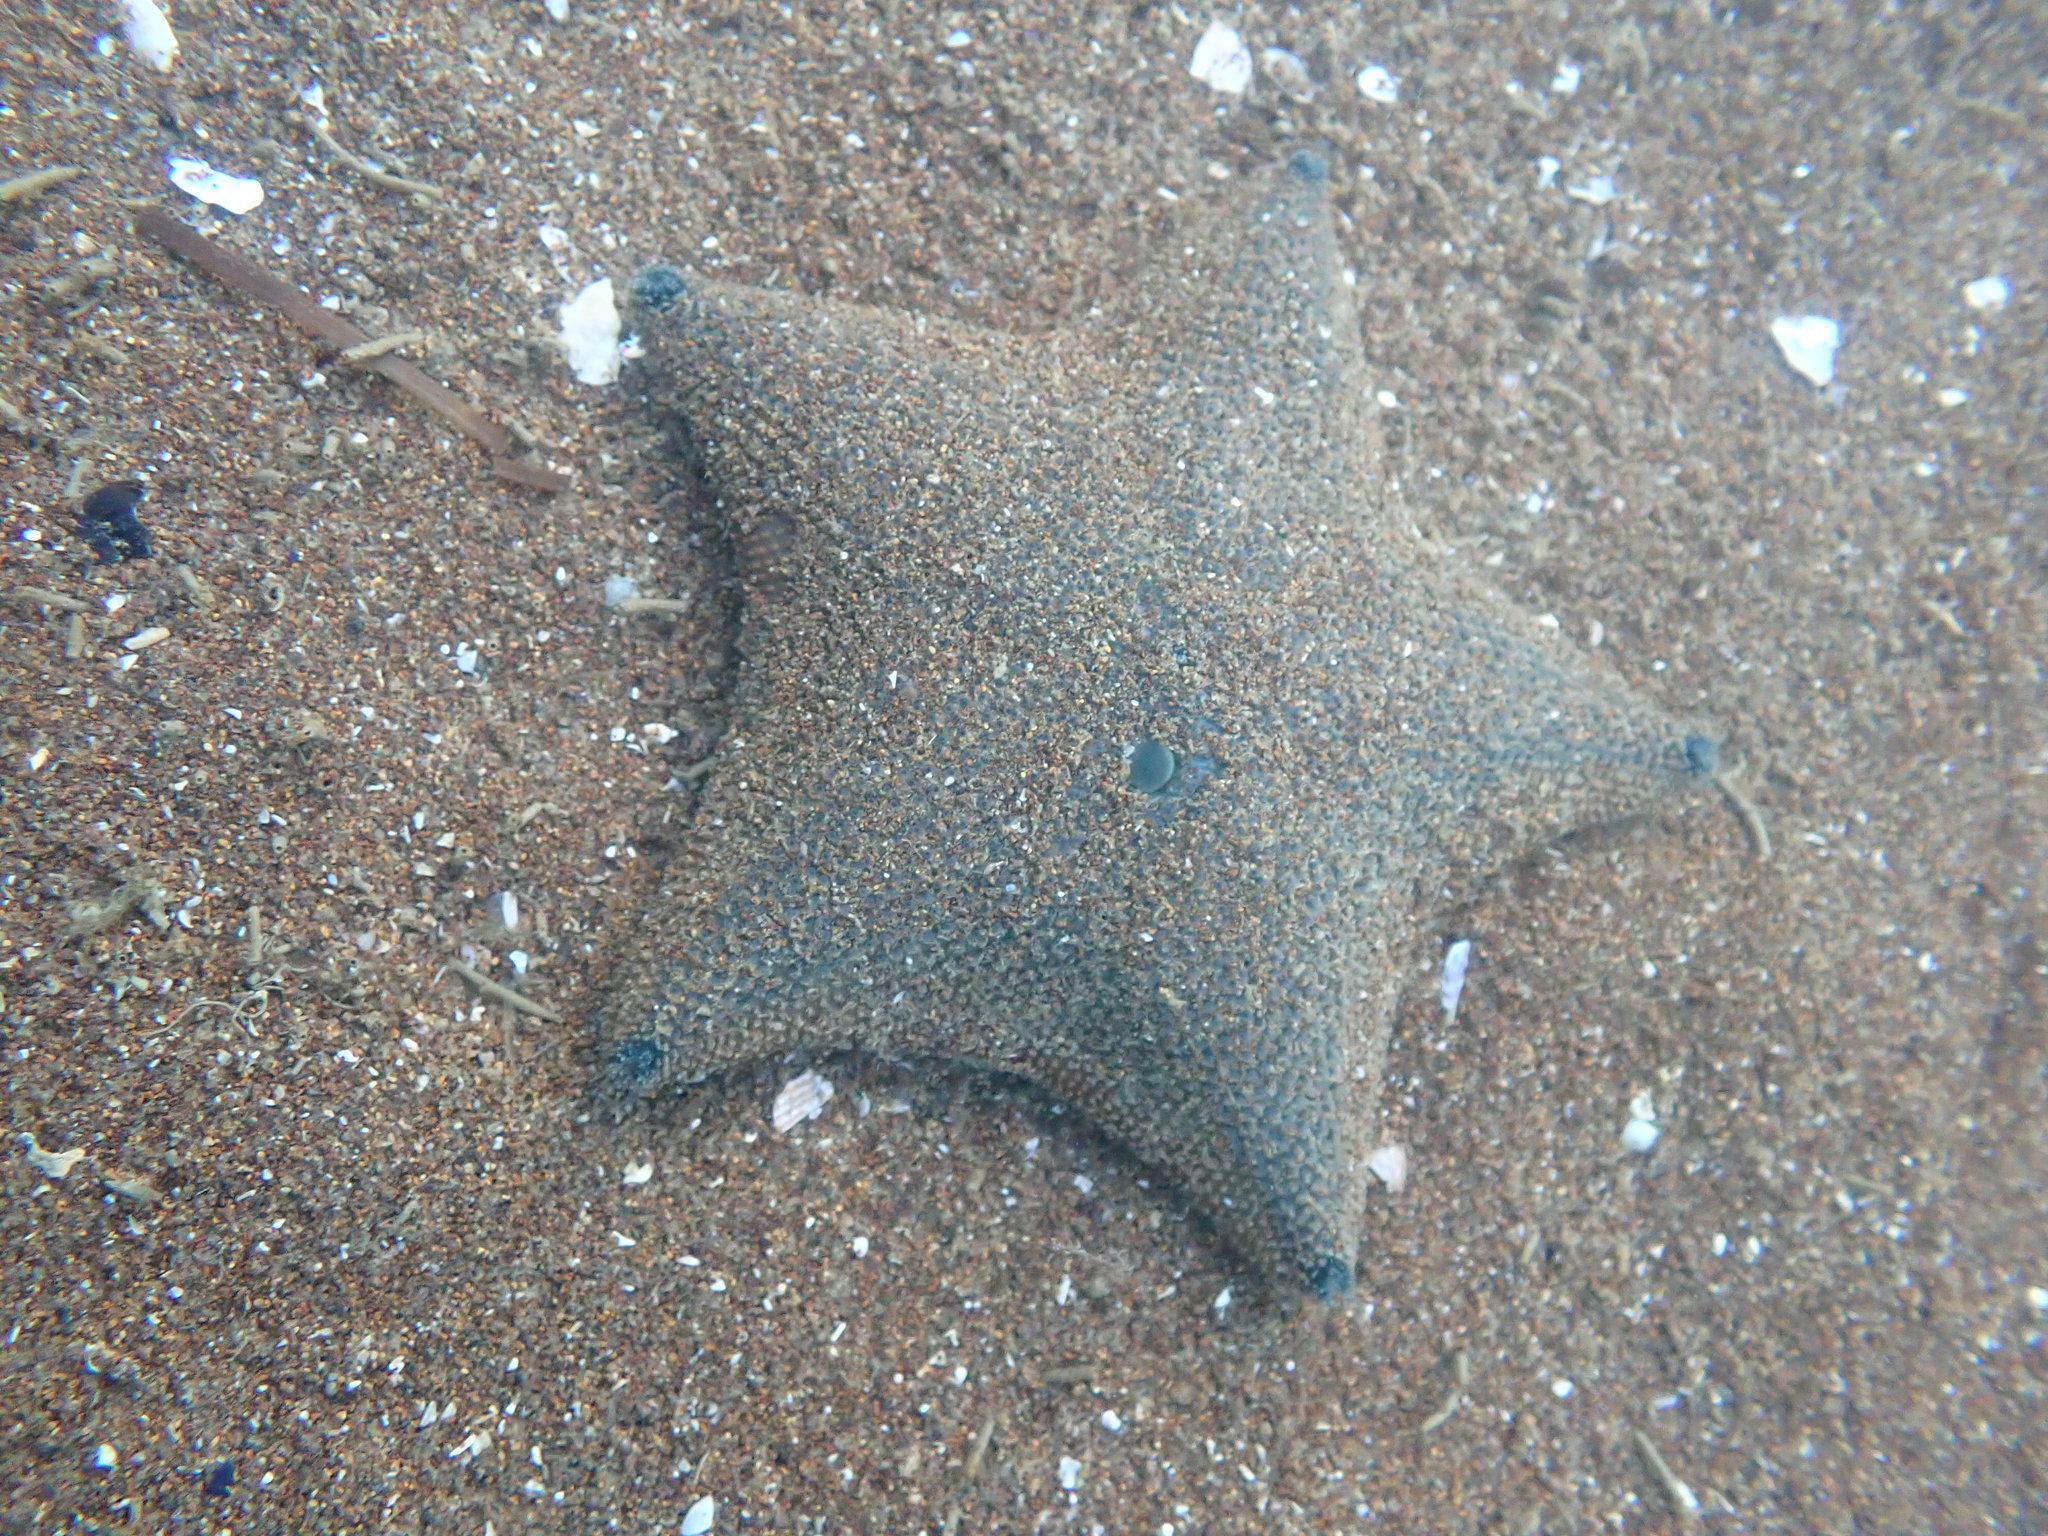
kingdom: Animalia
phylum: Echinodermata
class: Asteroidea
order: Valvatida
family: Asterinidae
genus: Patiriella
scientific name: Patiriella regularis
